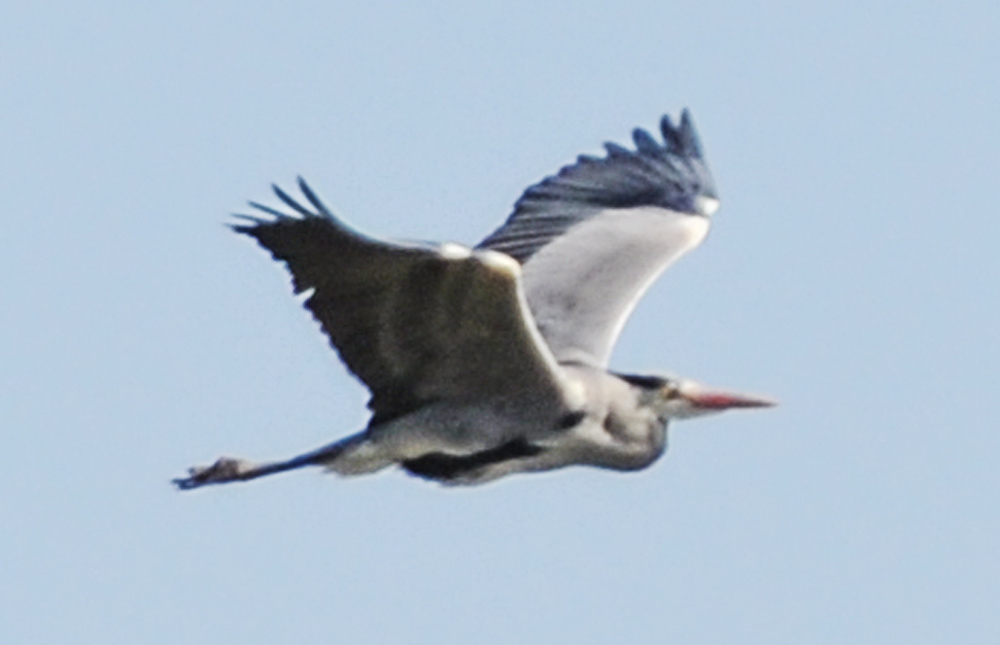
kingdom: Animalia
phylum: Chordata
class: Aves
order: Pelecaniformes
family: Ardeidae
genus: Ardea
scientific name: Ardea cinerea
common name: Grey heron
